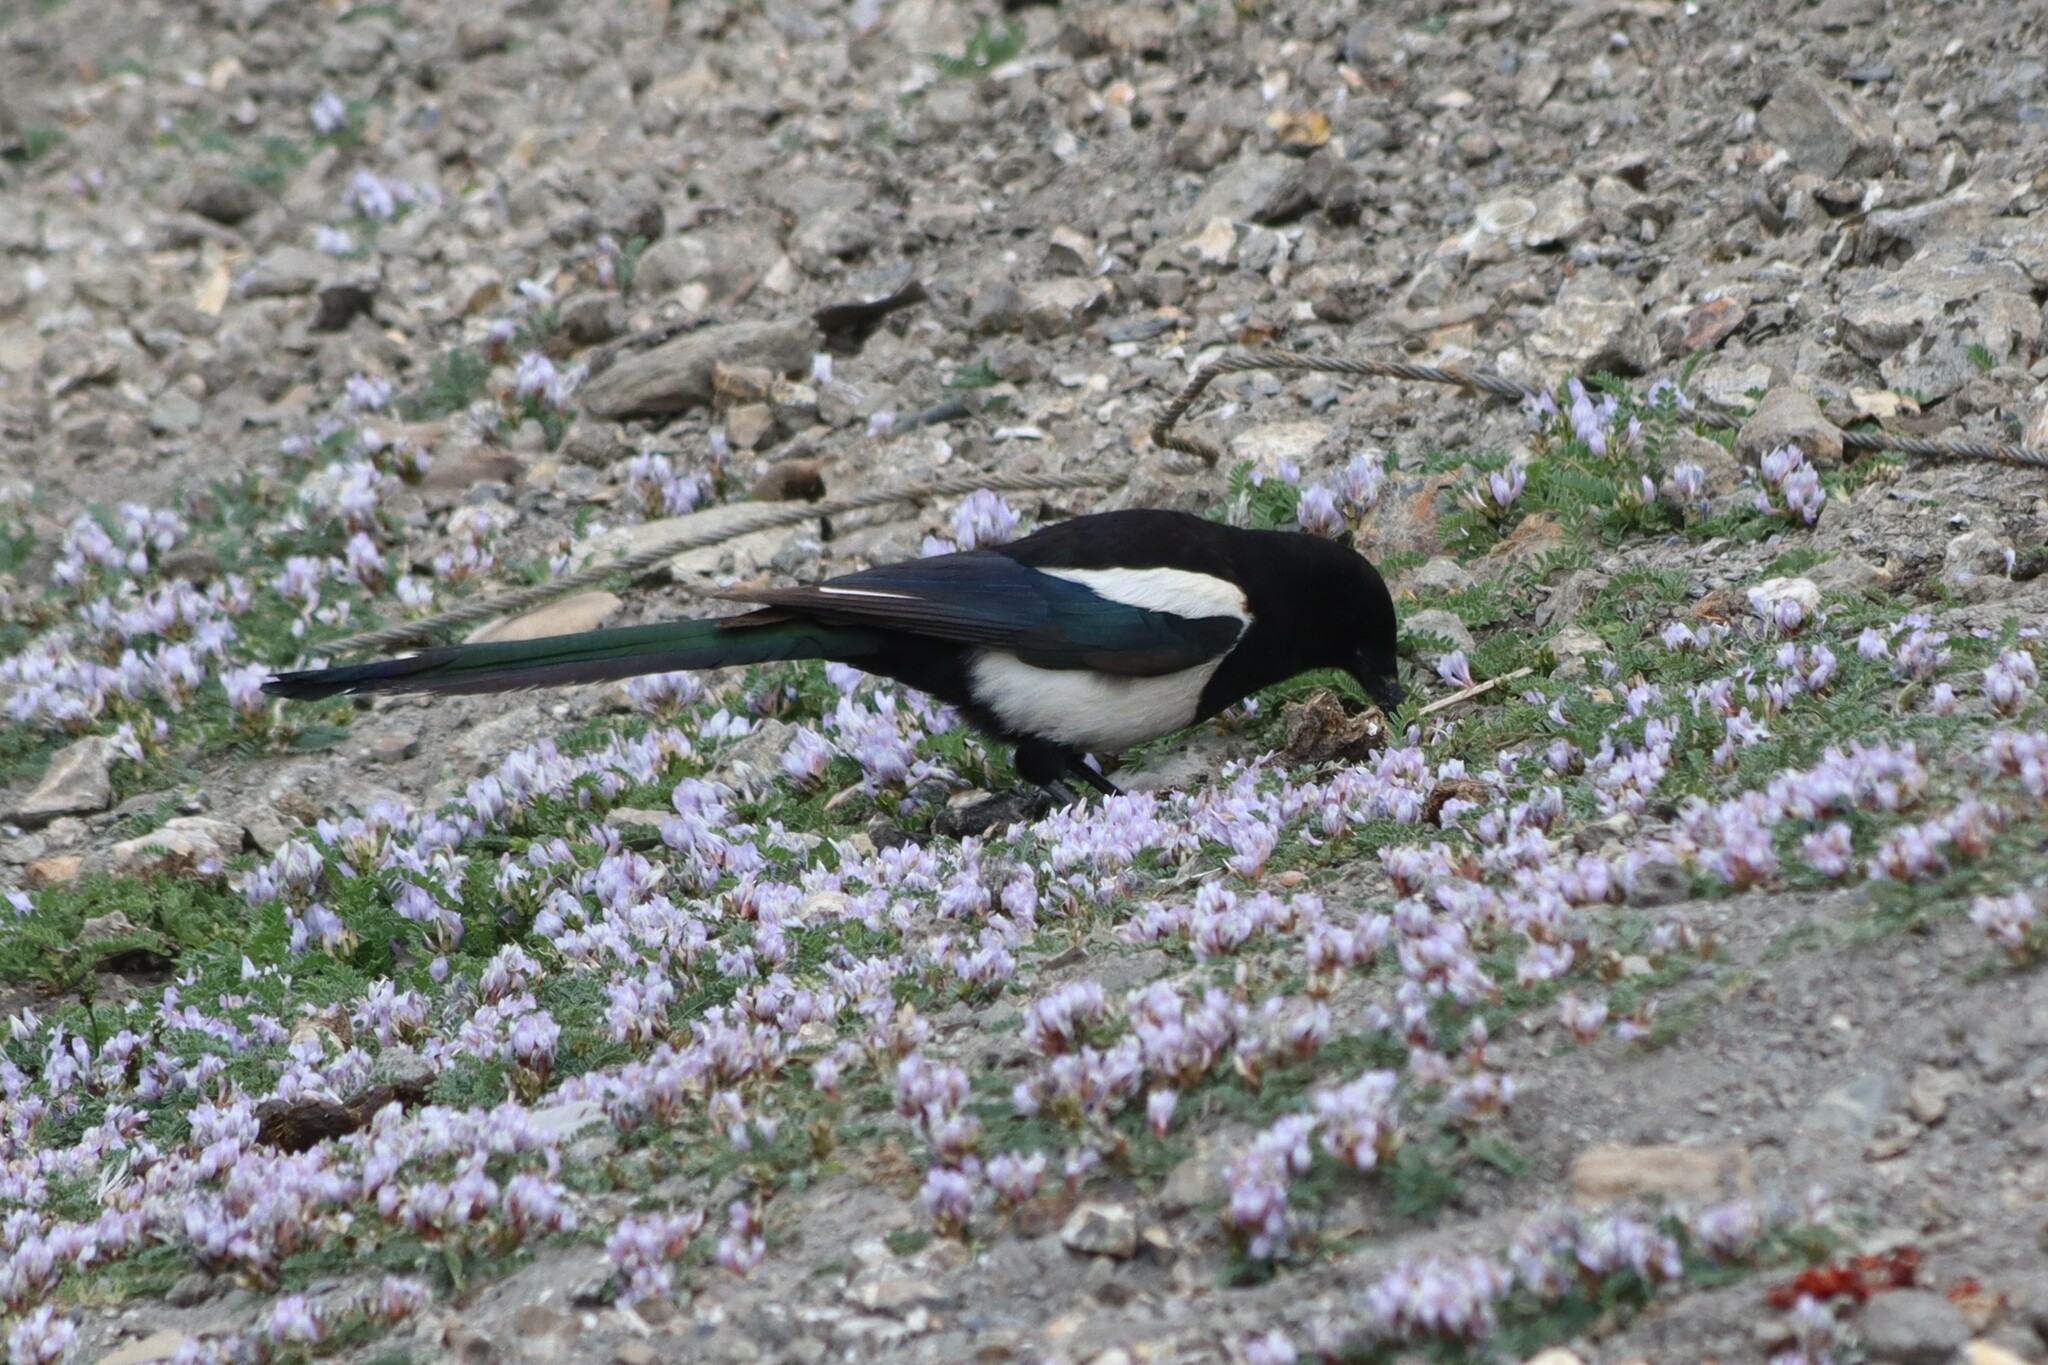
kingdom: Animalia
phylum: Chordata
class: Aves
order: Passeriformes
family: Corvidae
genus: Pica
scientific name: Pica pica
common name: Eurasian magpie
